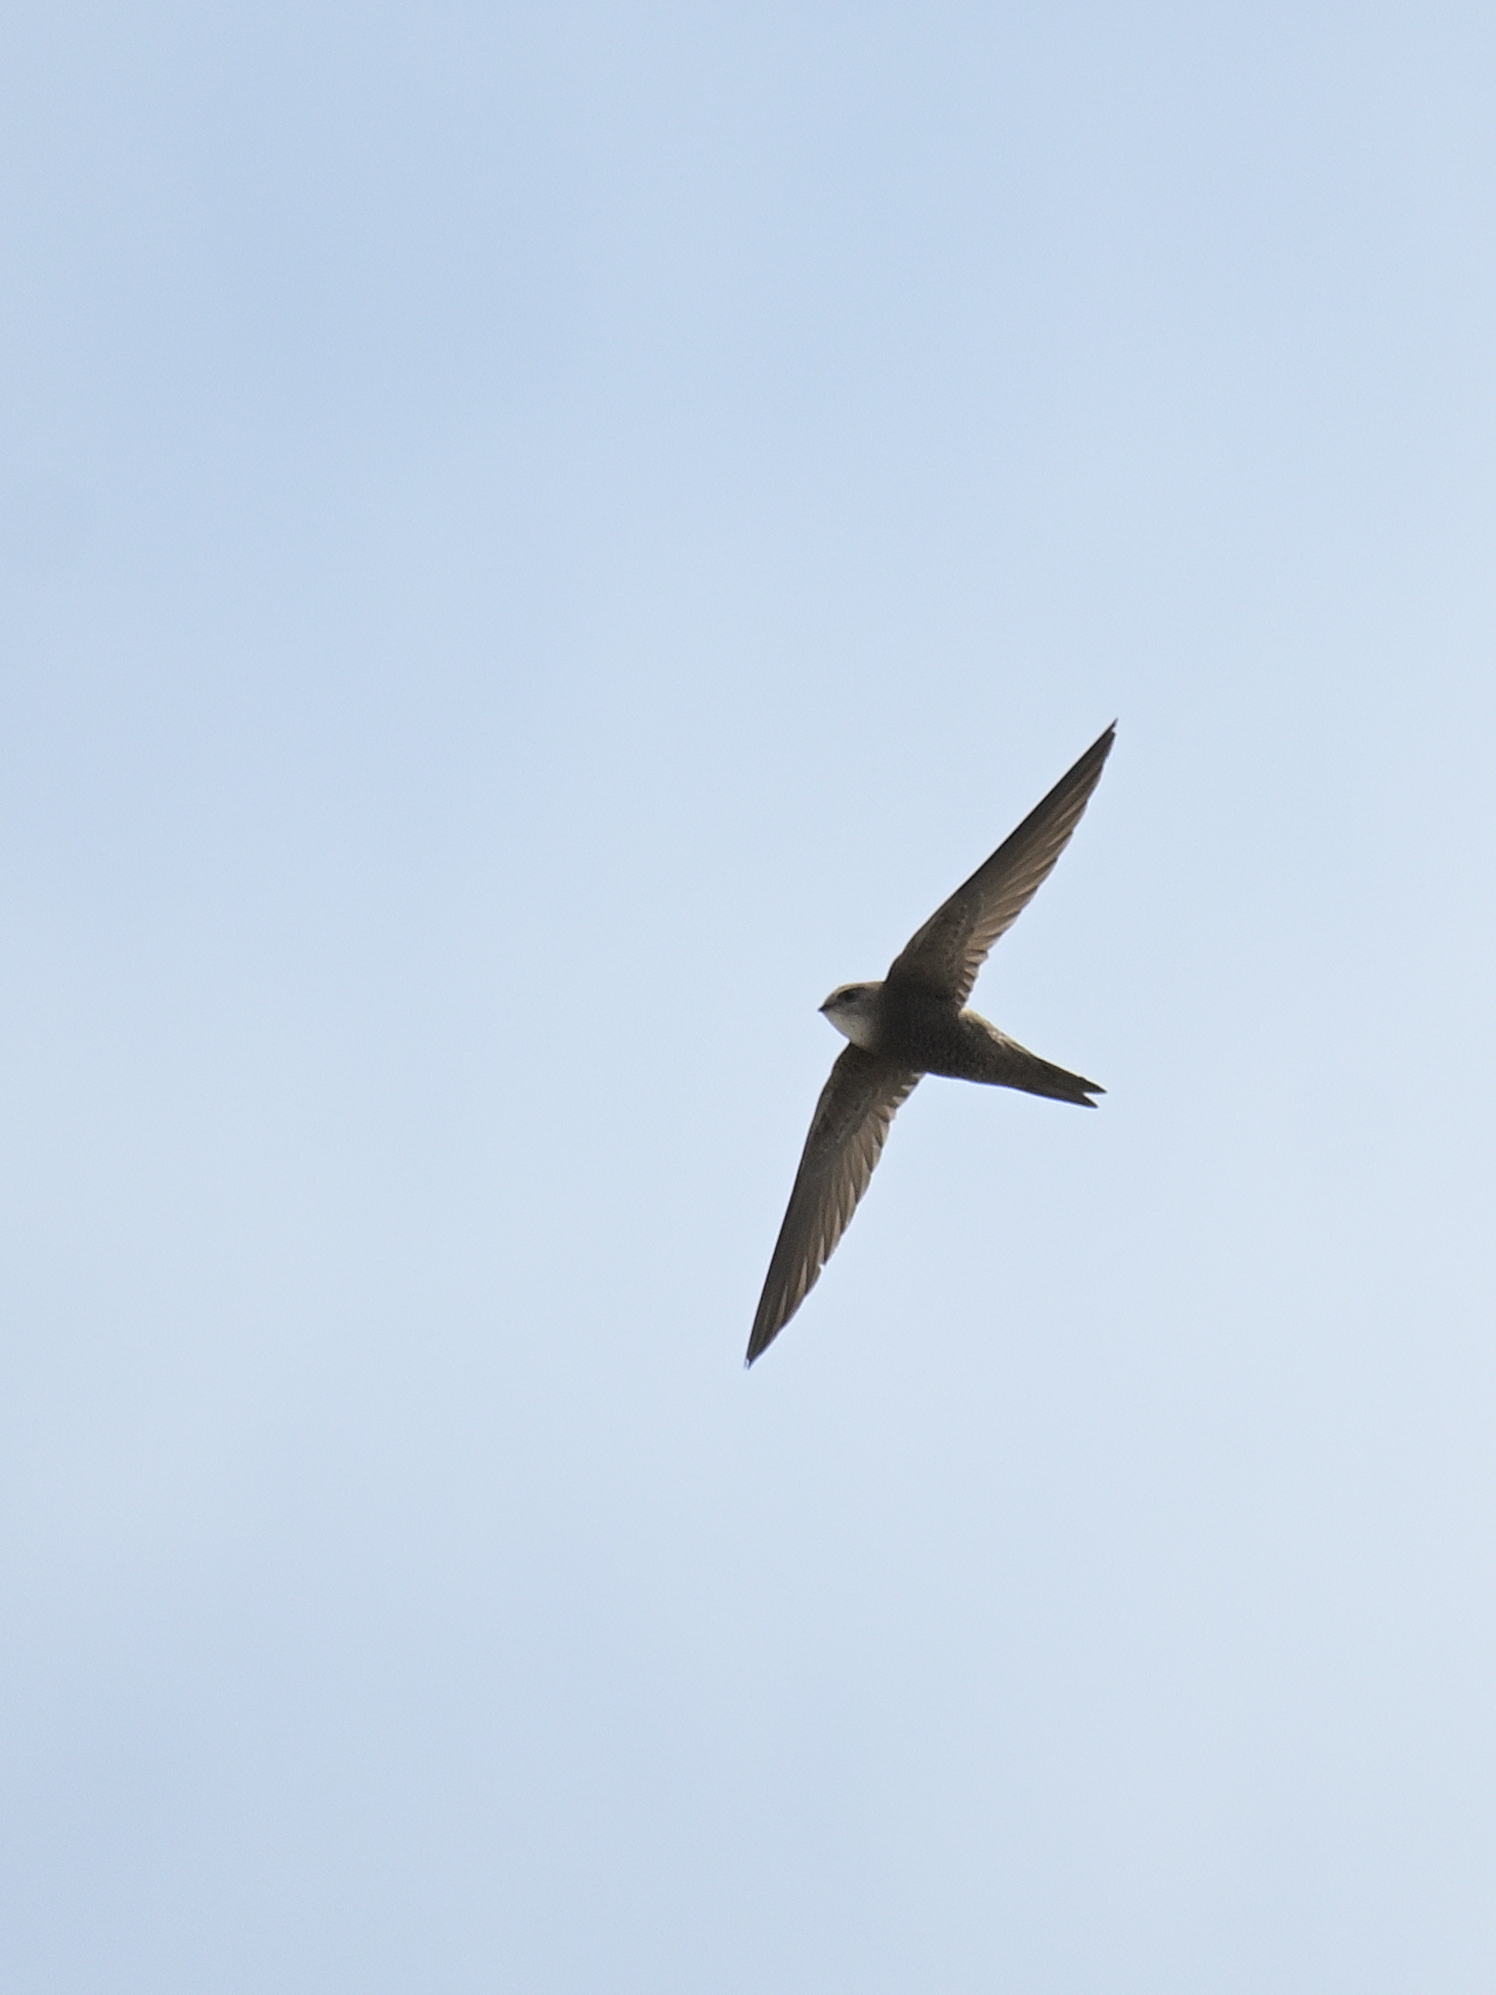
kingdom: Animalia
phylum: Chordata
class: Aves
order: Apodiformes
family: Apodidae
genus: Apus
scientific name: Apus pallidus
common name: Pallid swift
